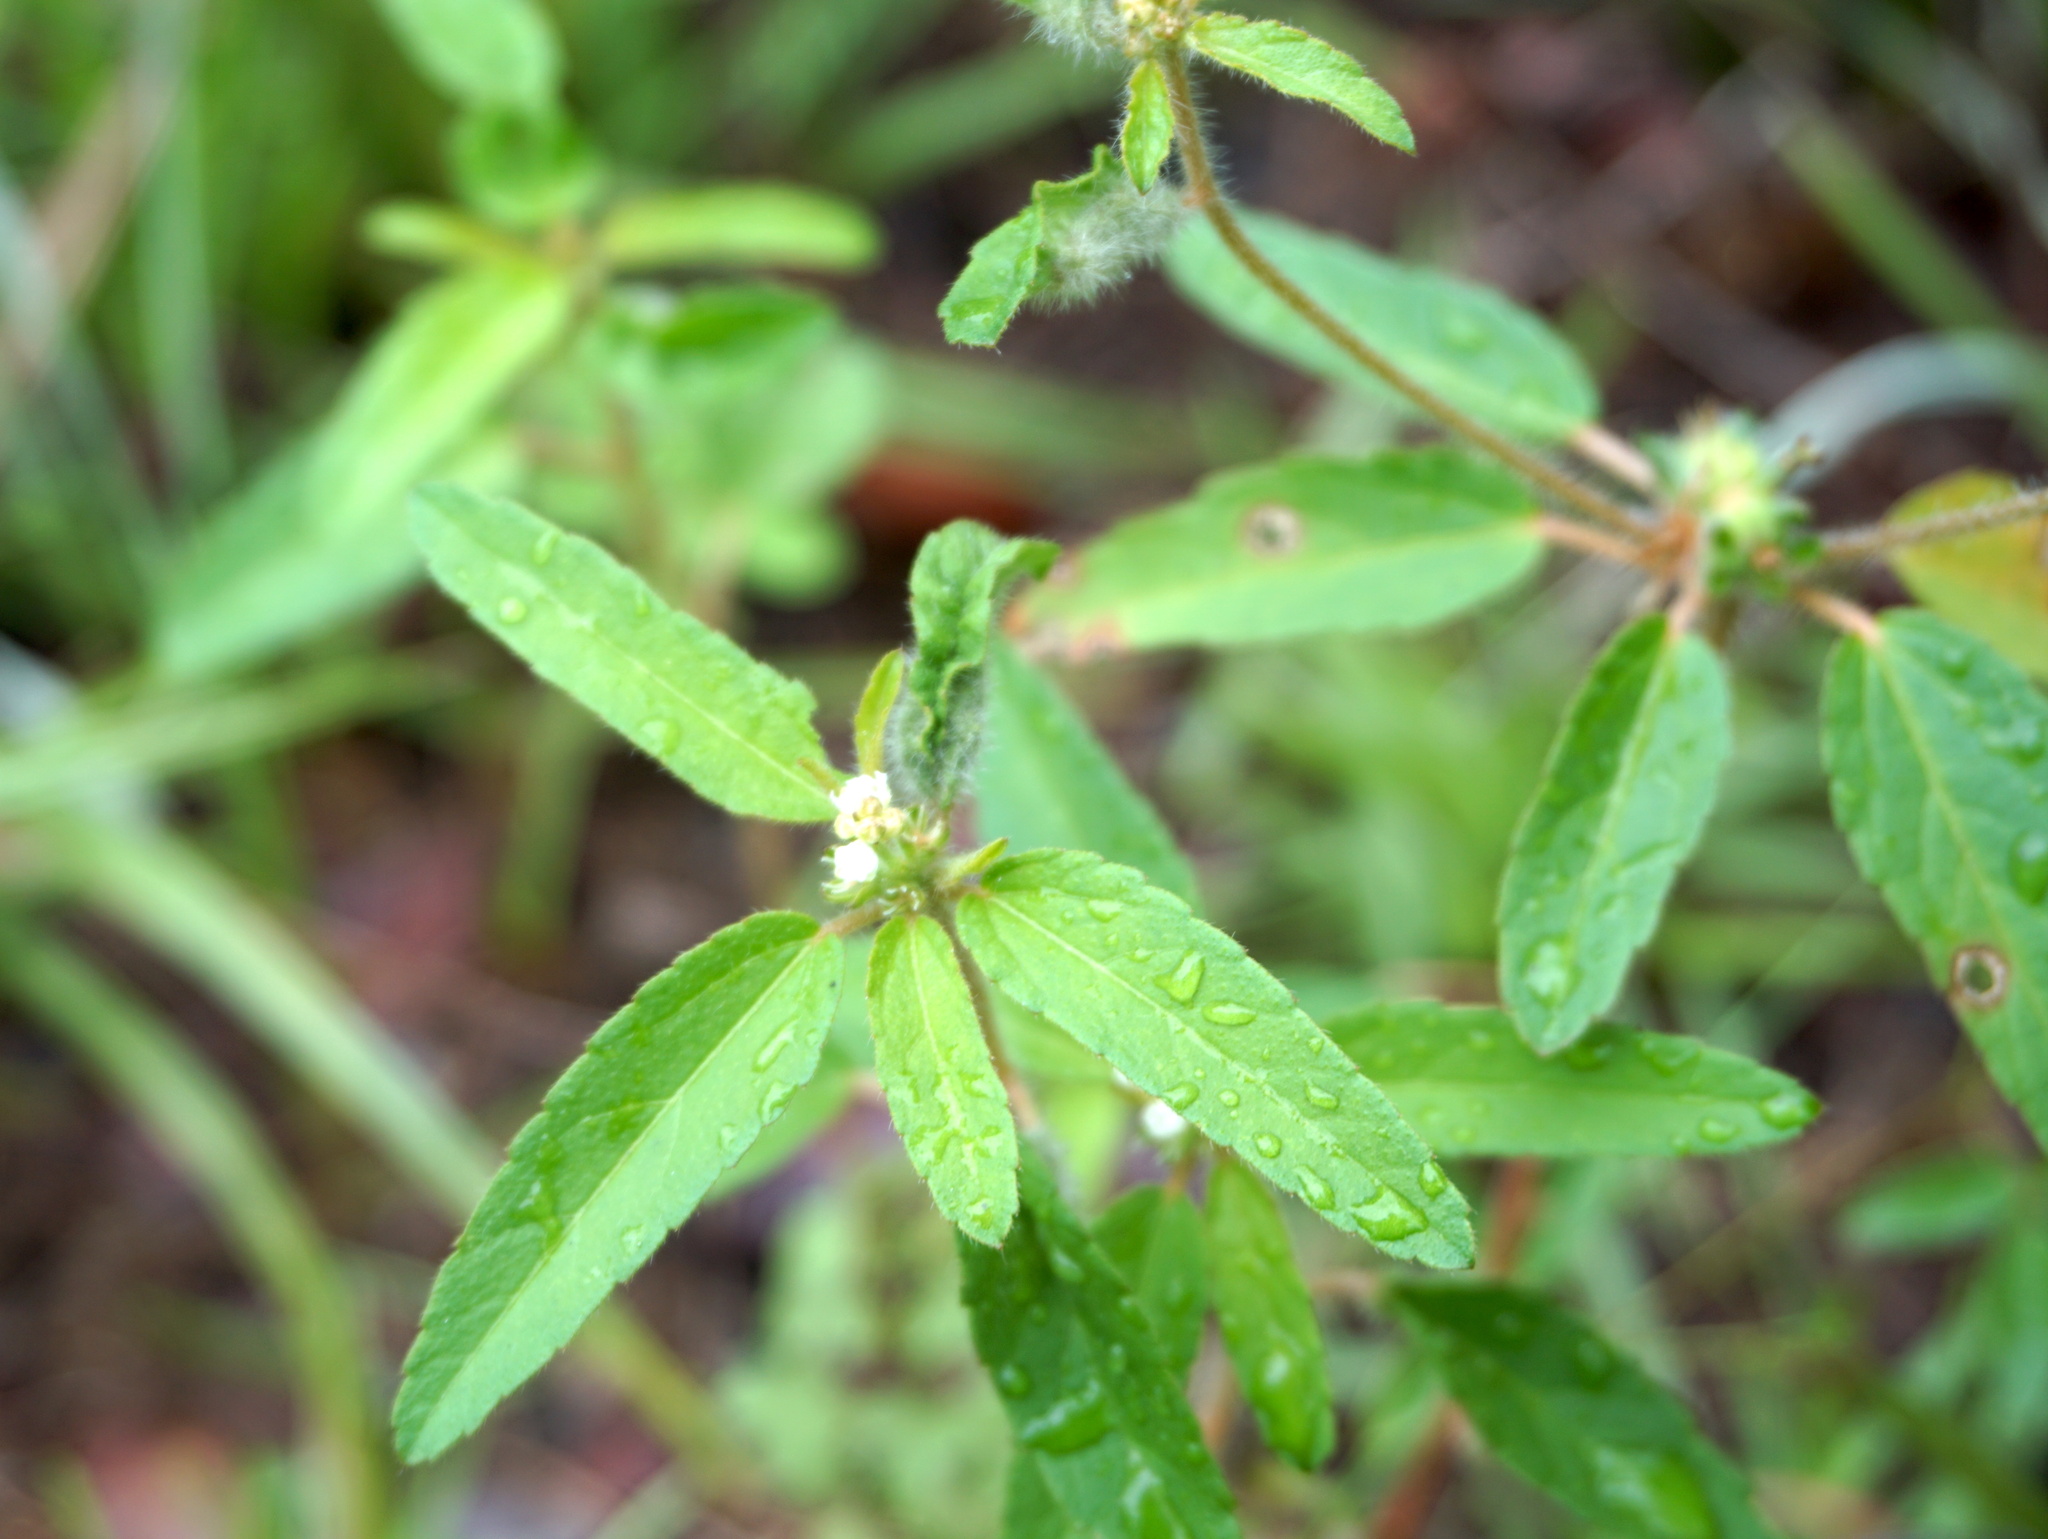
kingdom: Plantae
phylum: Tracheophyta
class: Magnoliopsida
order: Malpighiales
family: Euphorbiaceae
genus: Croton
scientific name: Croton glandulosus
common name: Tropic croton
